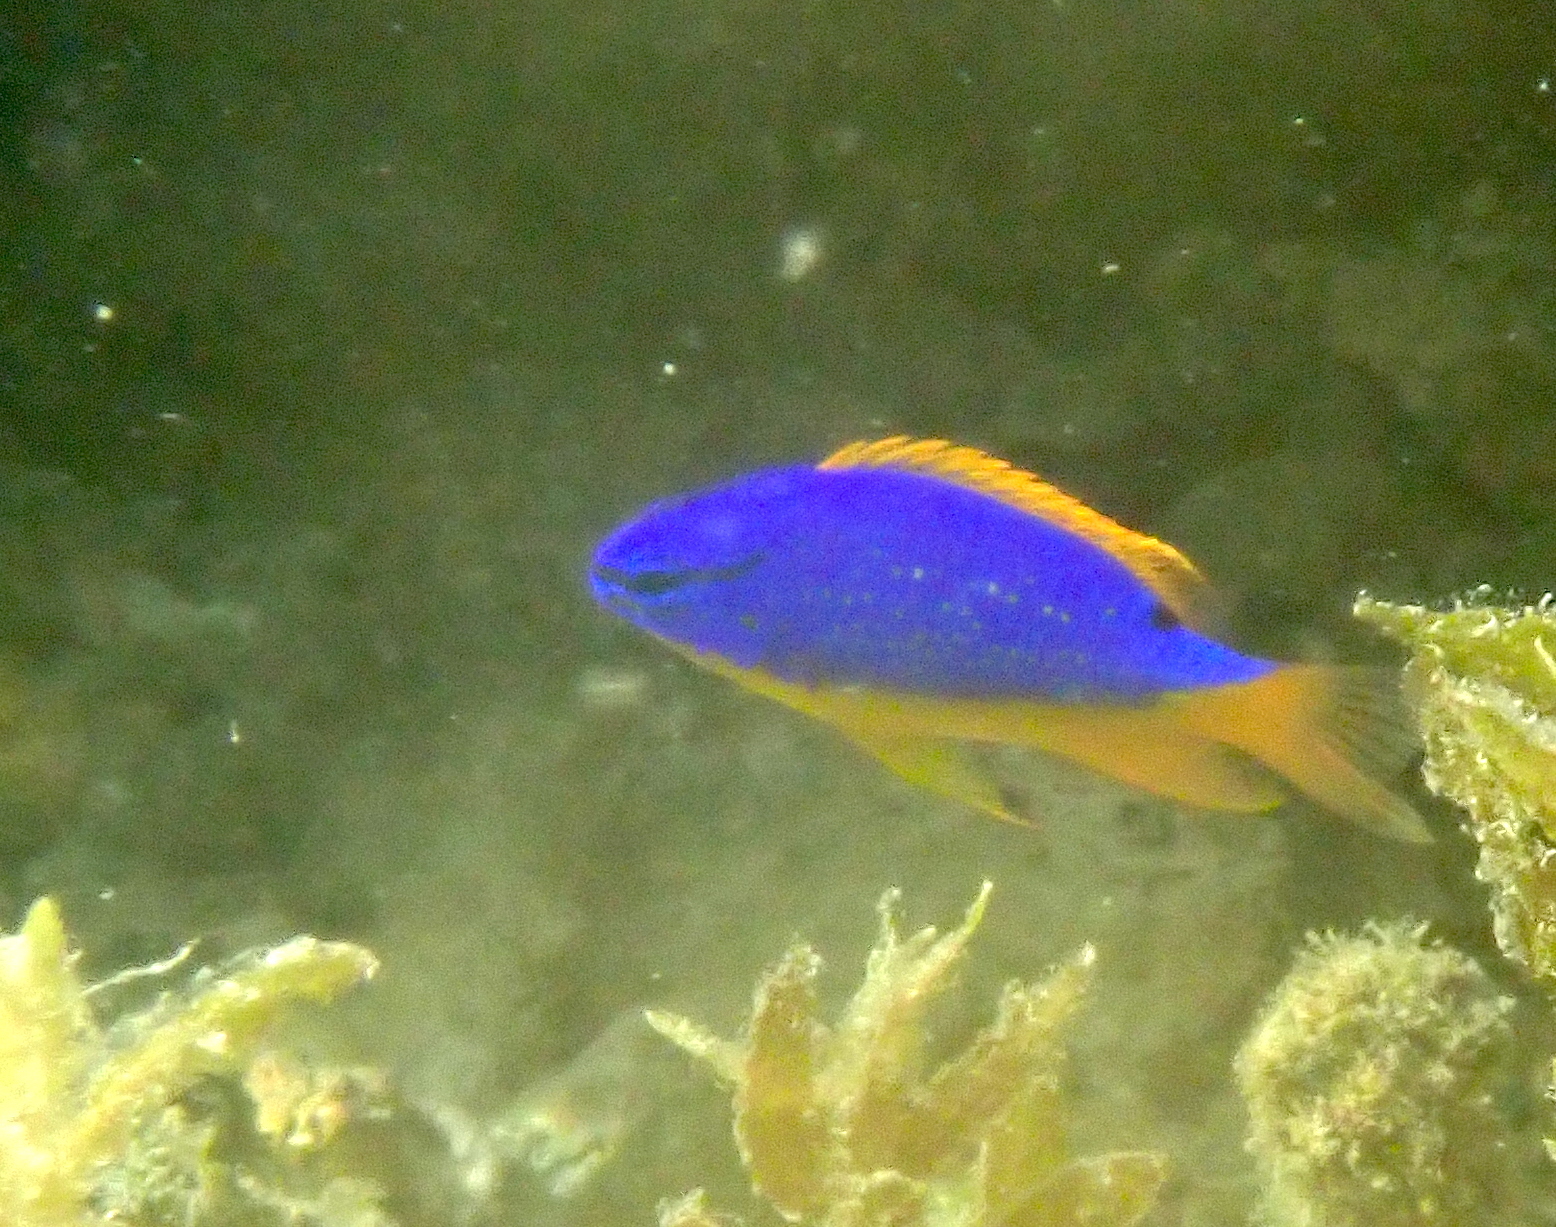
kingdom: Animalia
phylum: Chordata
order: Perciformes
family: Pomacentridae
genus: Chrysiptera
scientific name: Chrysiptera taupou
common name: Fiji damsel
